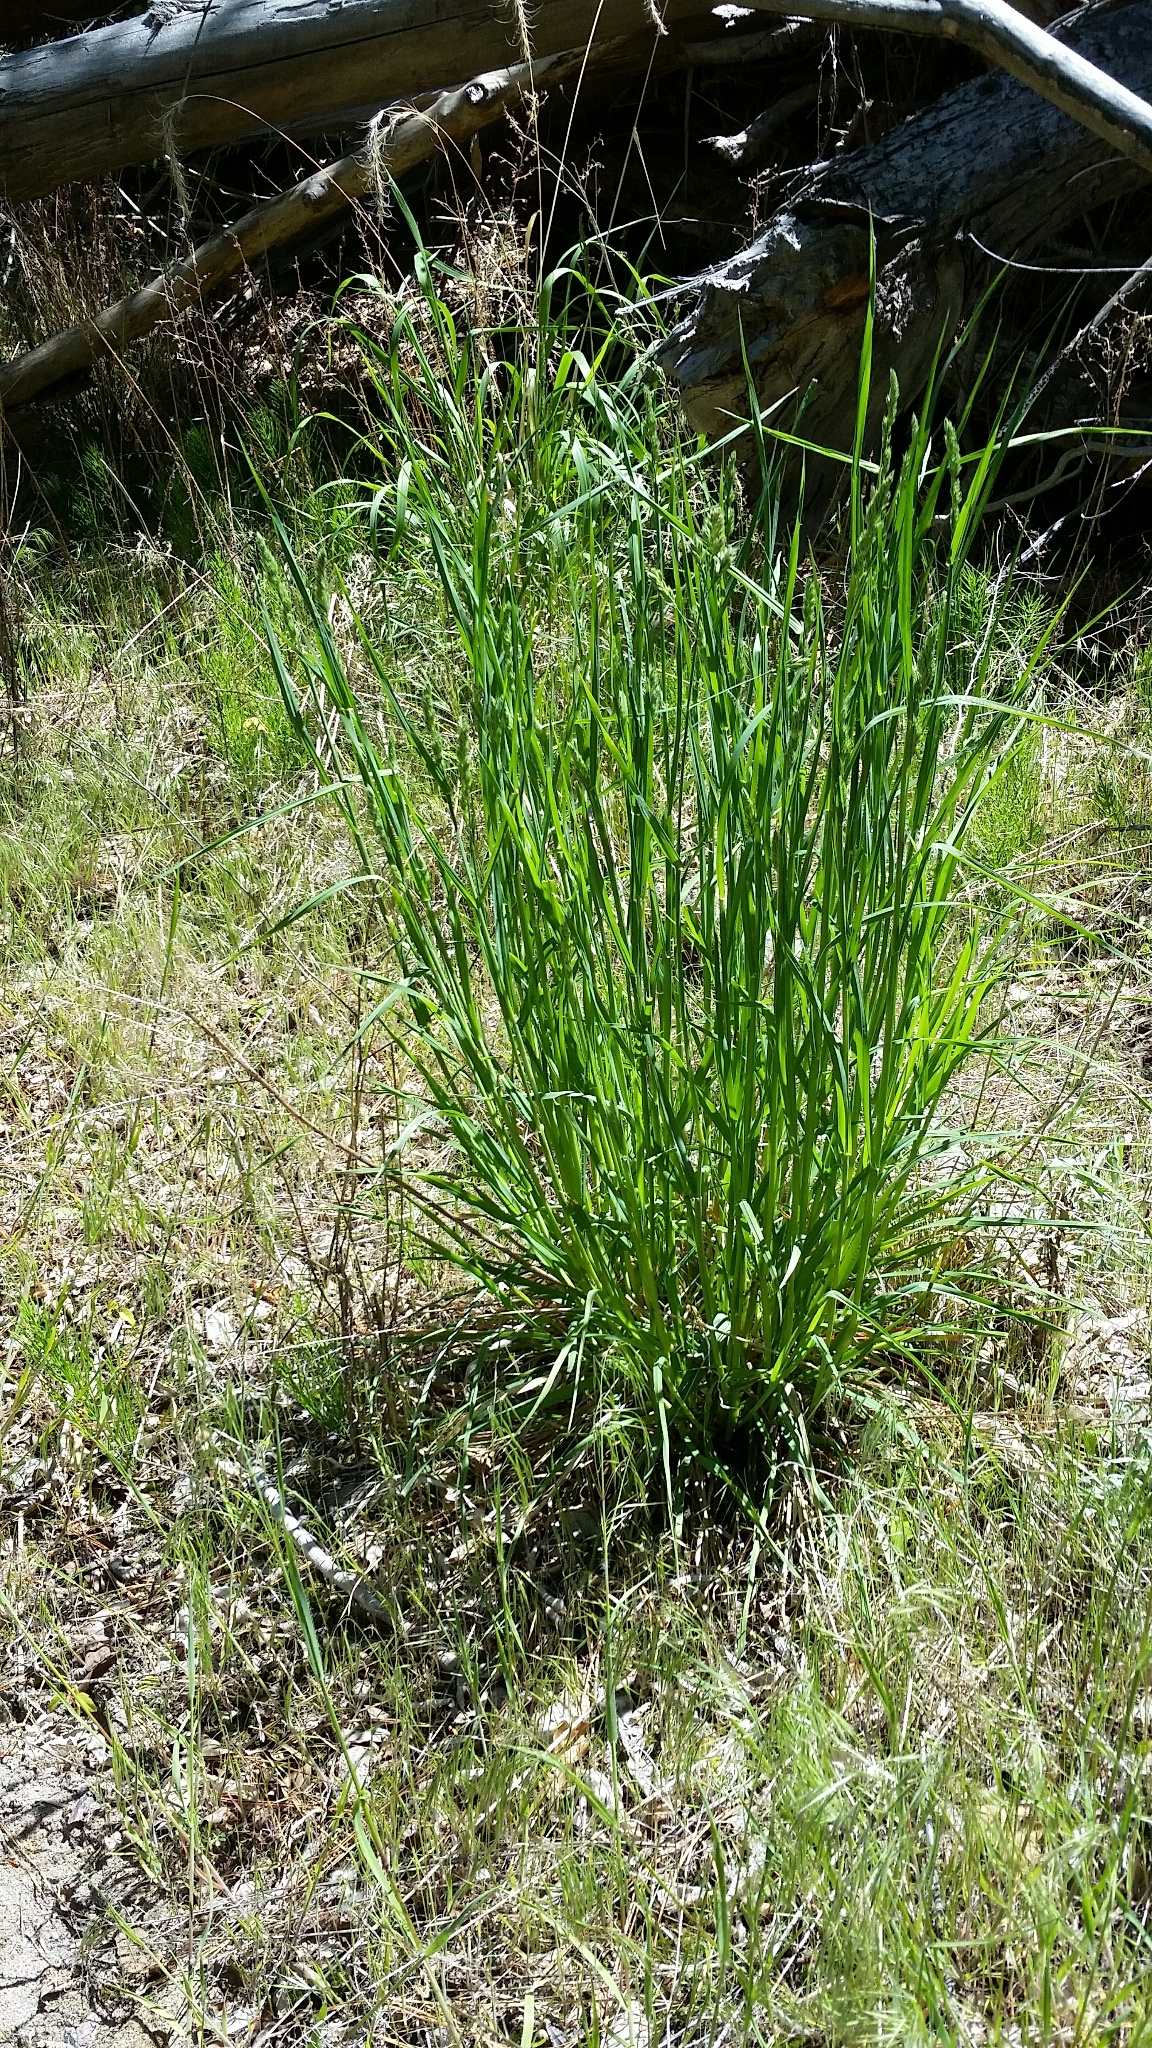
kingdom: Plantae
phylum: Tracheophyta
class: Liliopsida
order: Poales
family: Poaceae
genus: Dactylis
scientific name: Dactylis glomerata
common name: Orchardgrass
